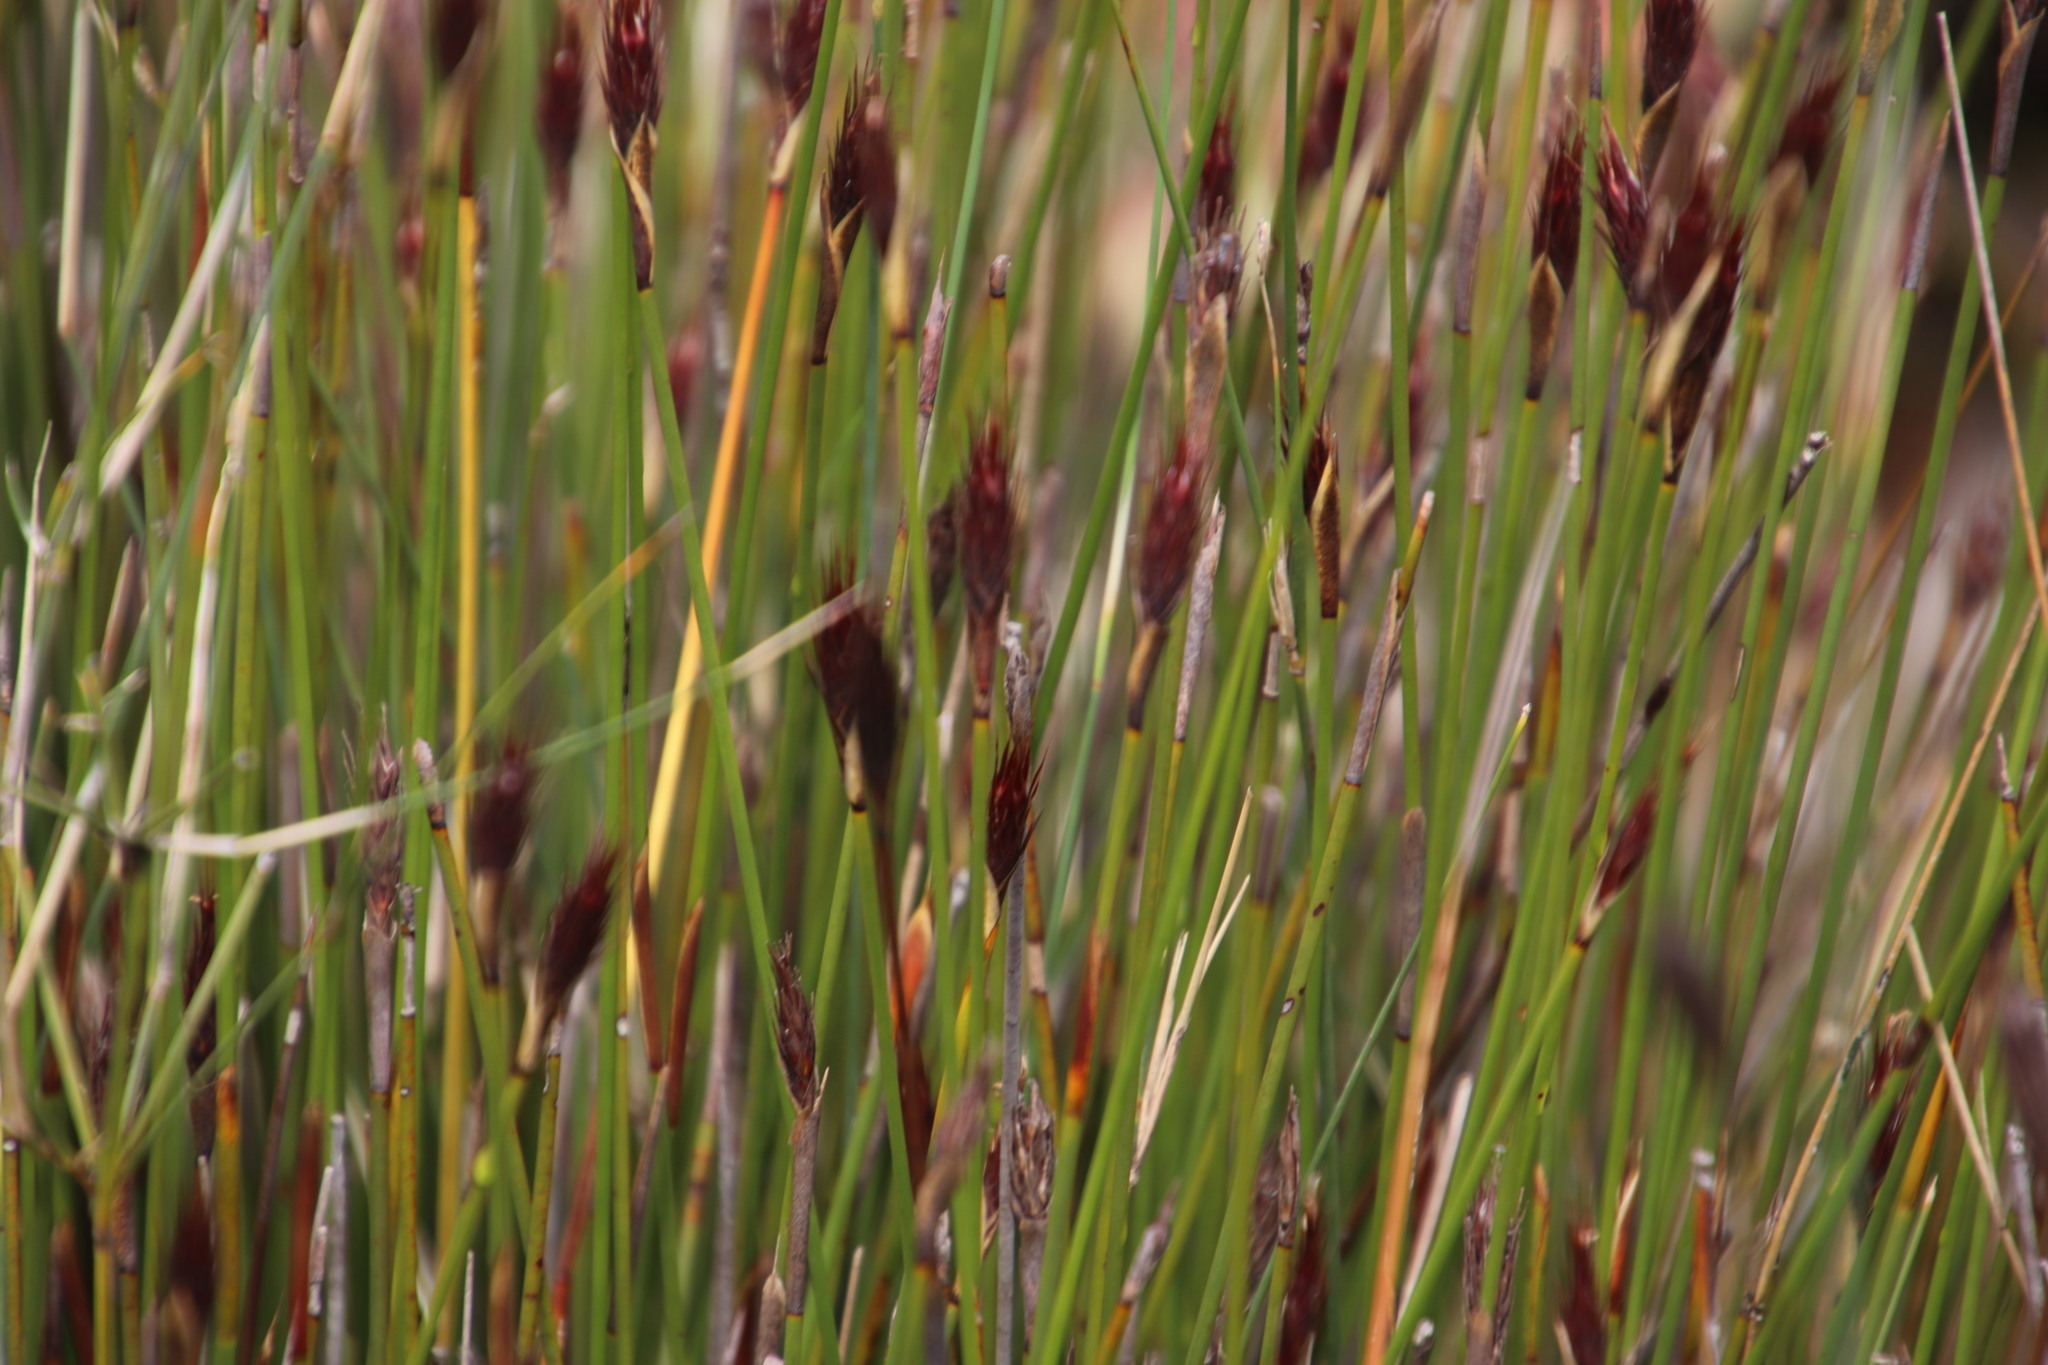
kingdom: Plantae
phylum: Tracheophyta
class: Liliopsida
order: Poales
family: Restionaceae
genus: Hypodiscus
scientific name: Hypodiscus aristatus
